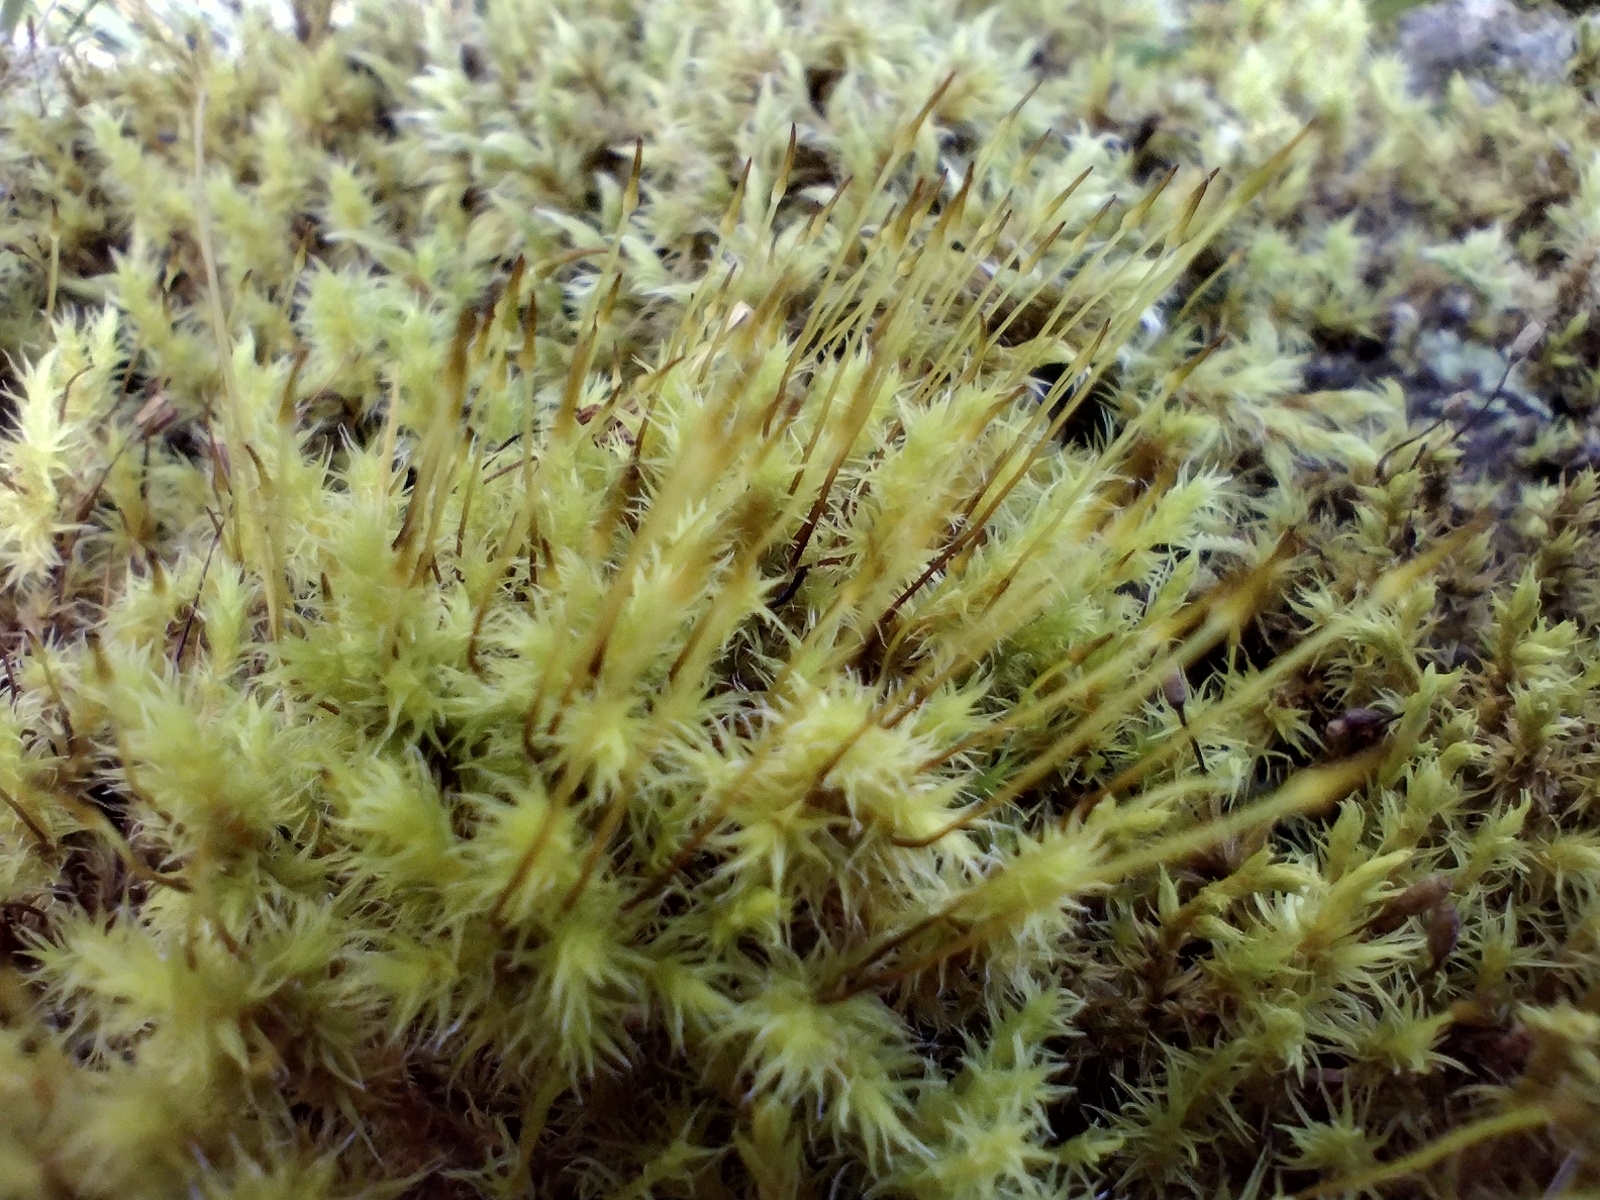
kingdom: Plantae
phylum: Bryophyta
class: Bryopsida
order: Grimmiales
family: Grimmiaceae
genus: Niphotrichum
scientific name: Niphotrichum elongatum
